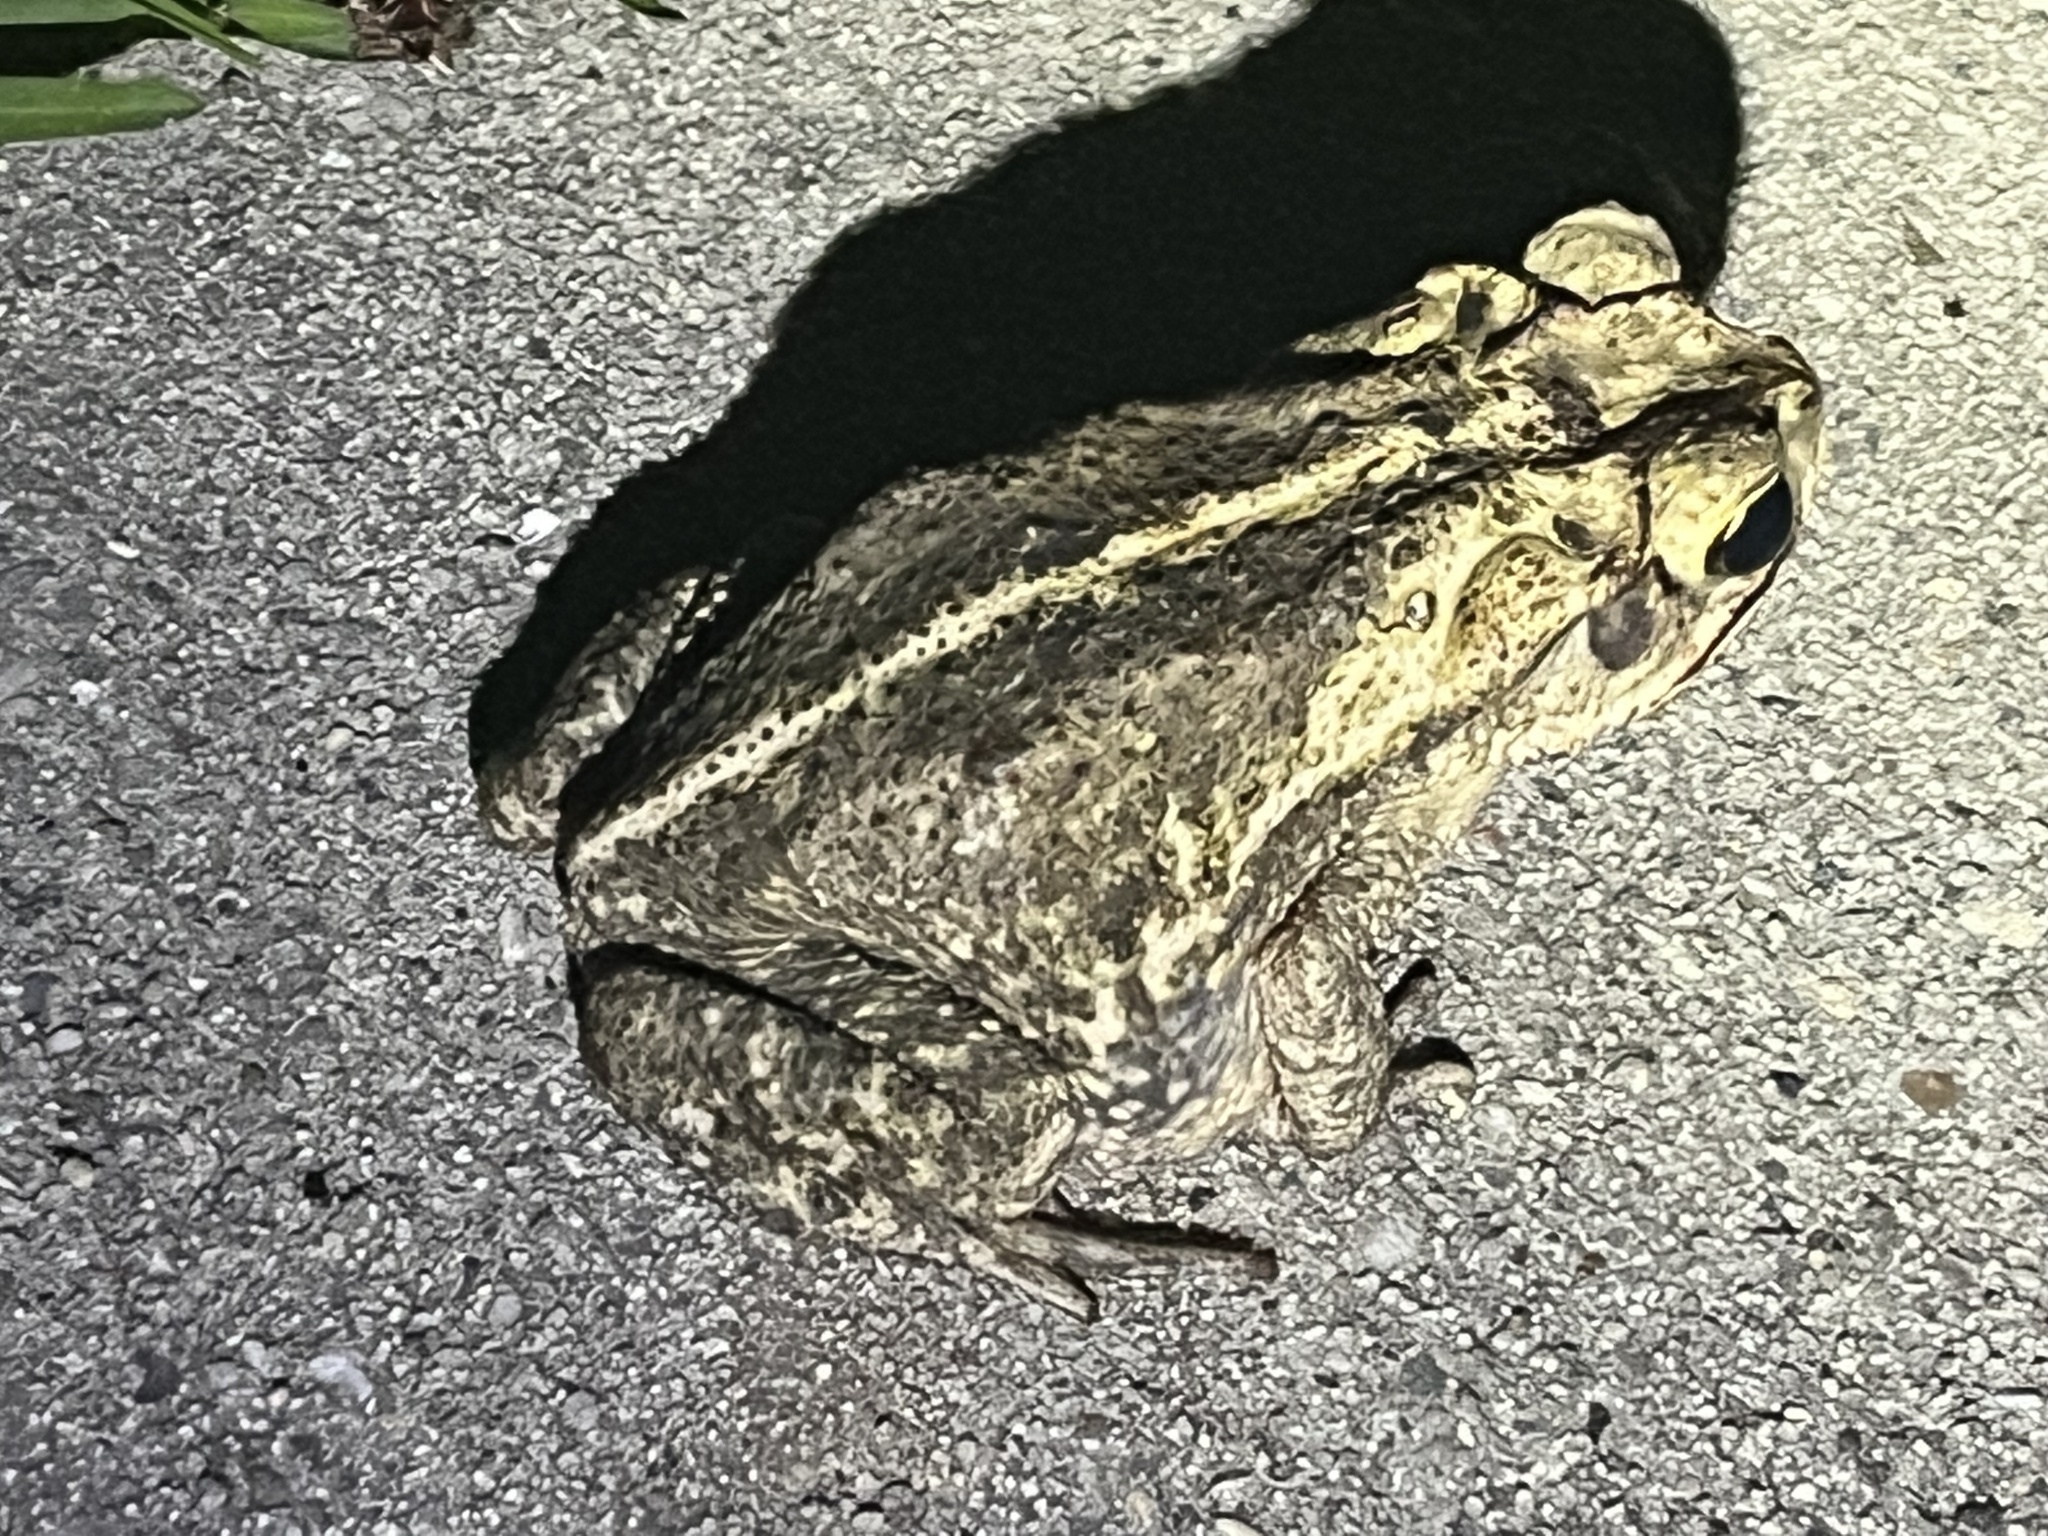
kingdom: Animalia
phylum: Chordata
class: Amphibia
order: Anura
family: Bufonidae
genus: Incilius
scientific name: Incilius nebulifer
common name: Gulf coast toad
